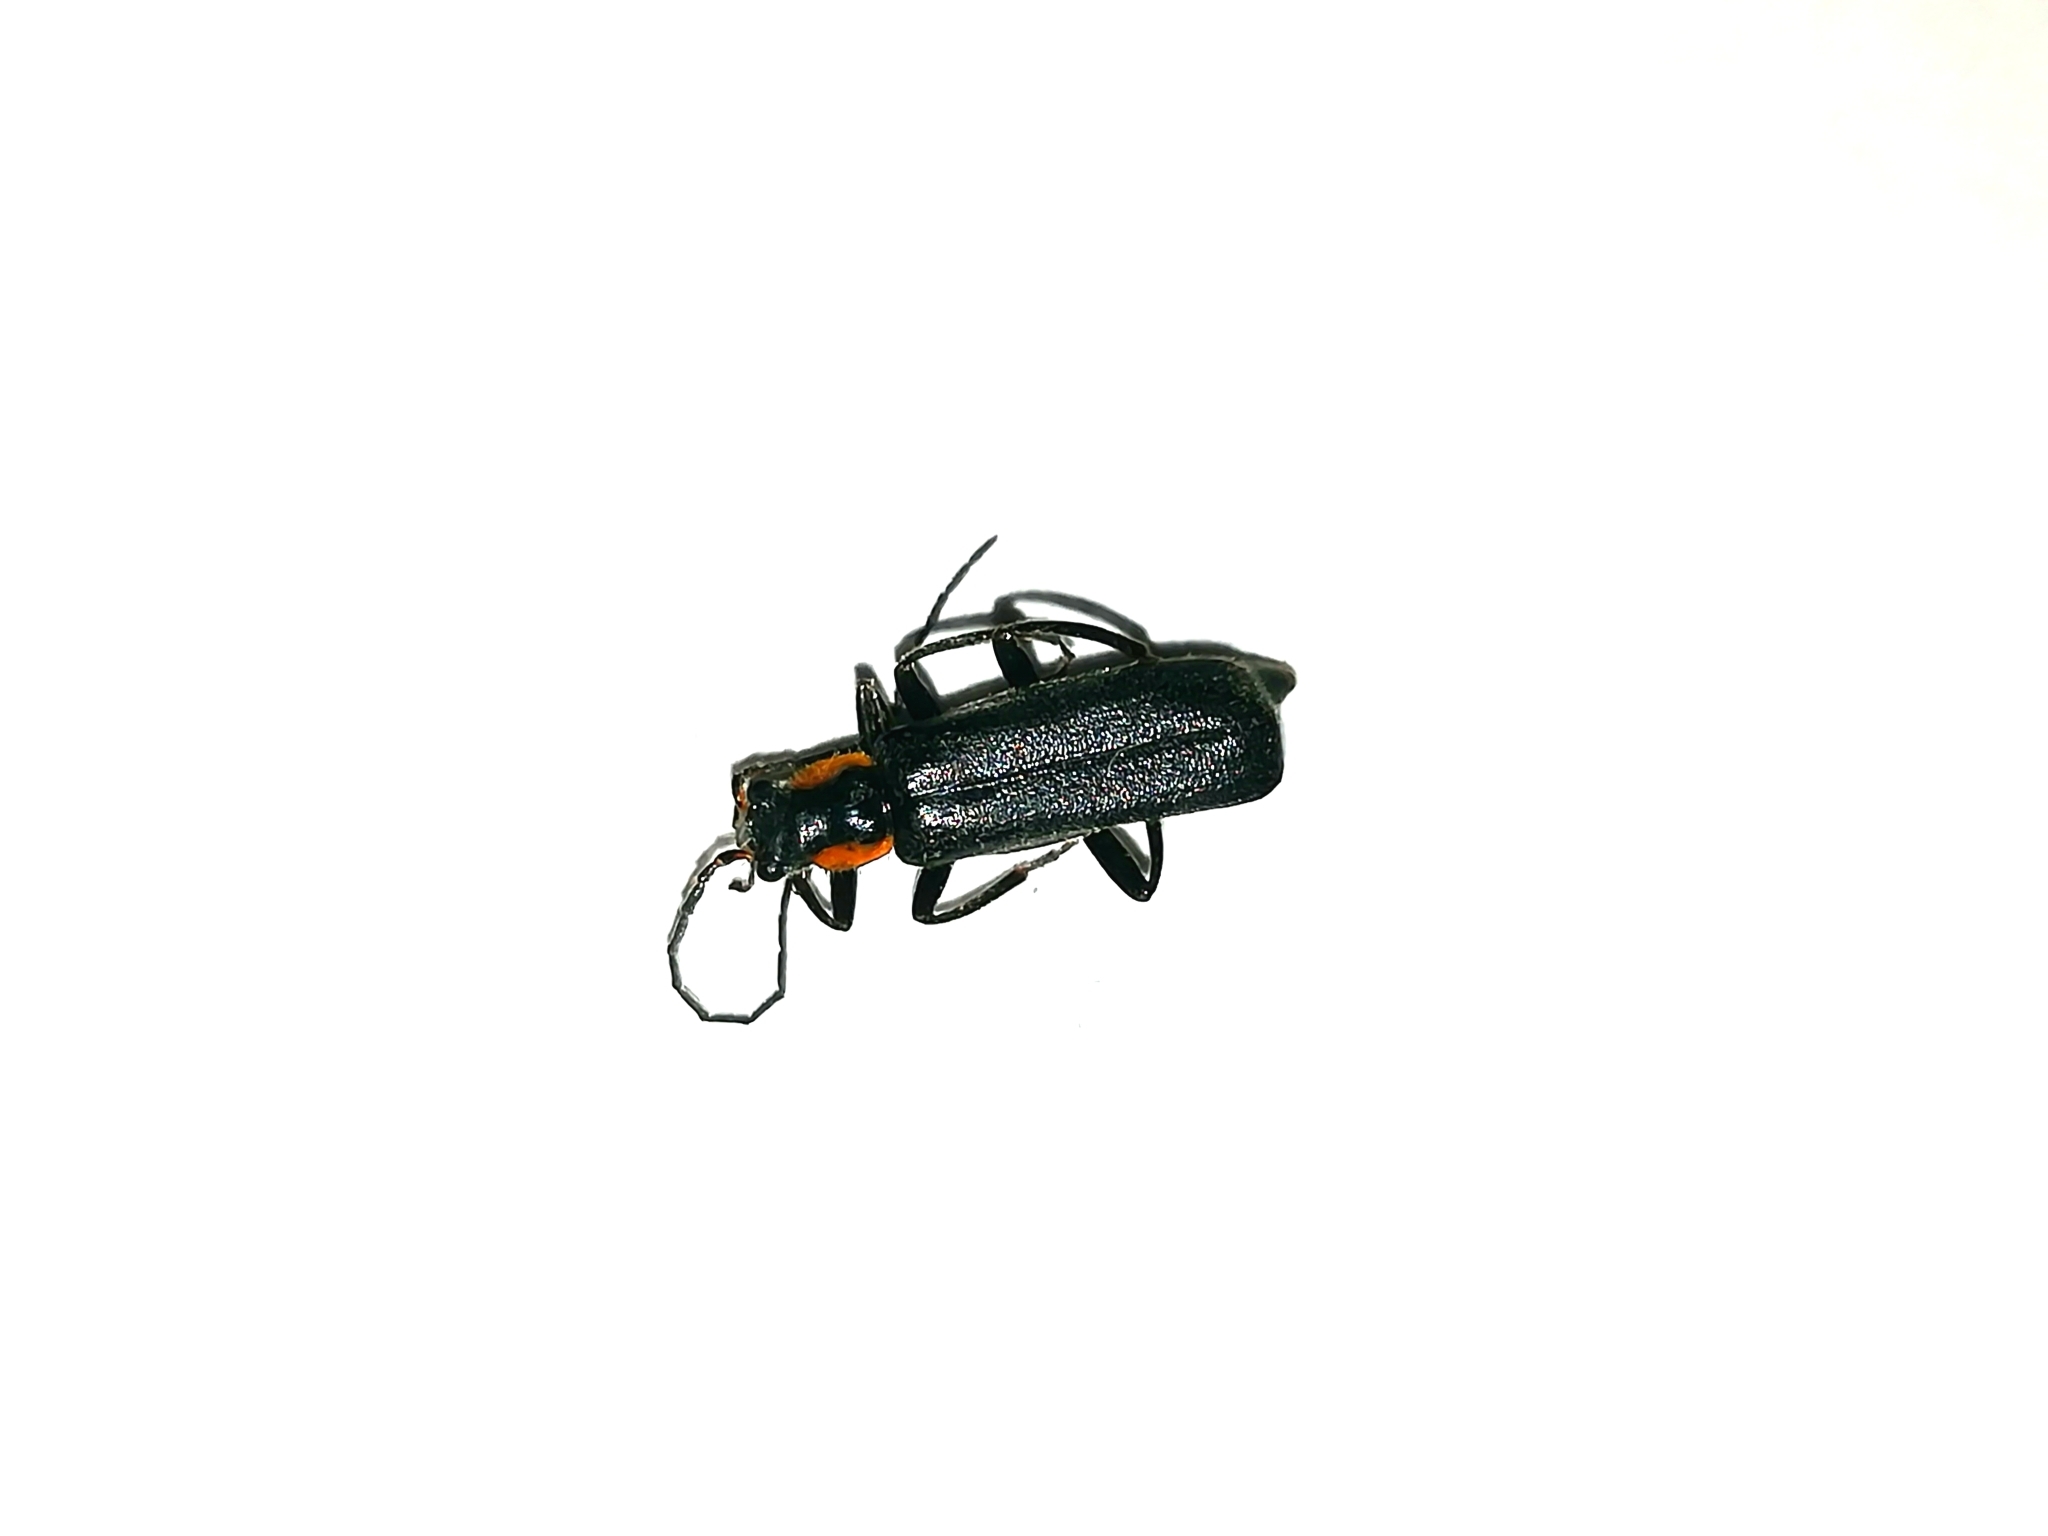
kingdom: Animalia
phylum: Arthropoda
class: Insecta
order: Coleoptera
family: Cantharidae
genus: Cantharis
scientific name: Cantharis obscura
